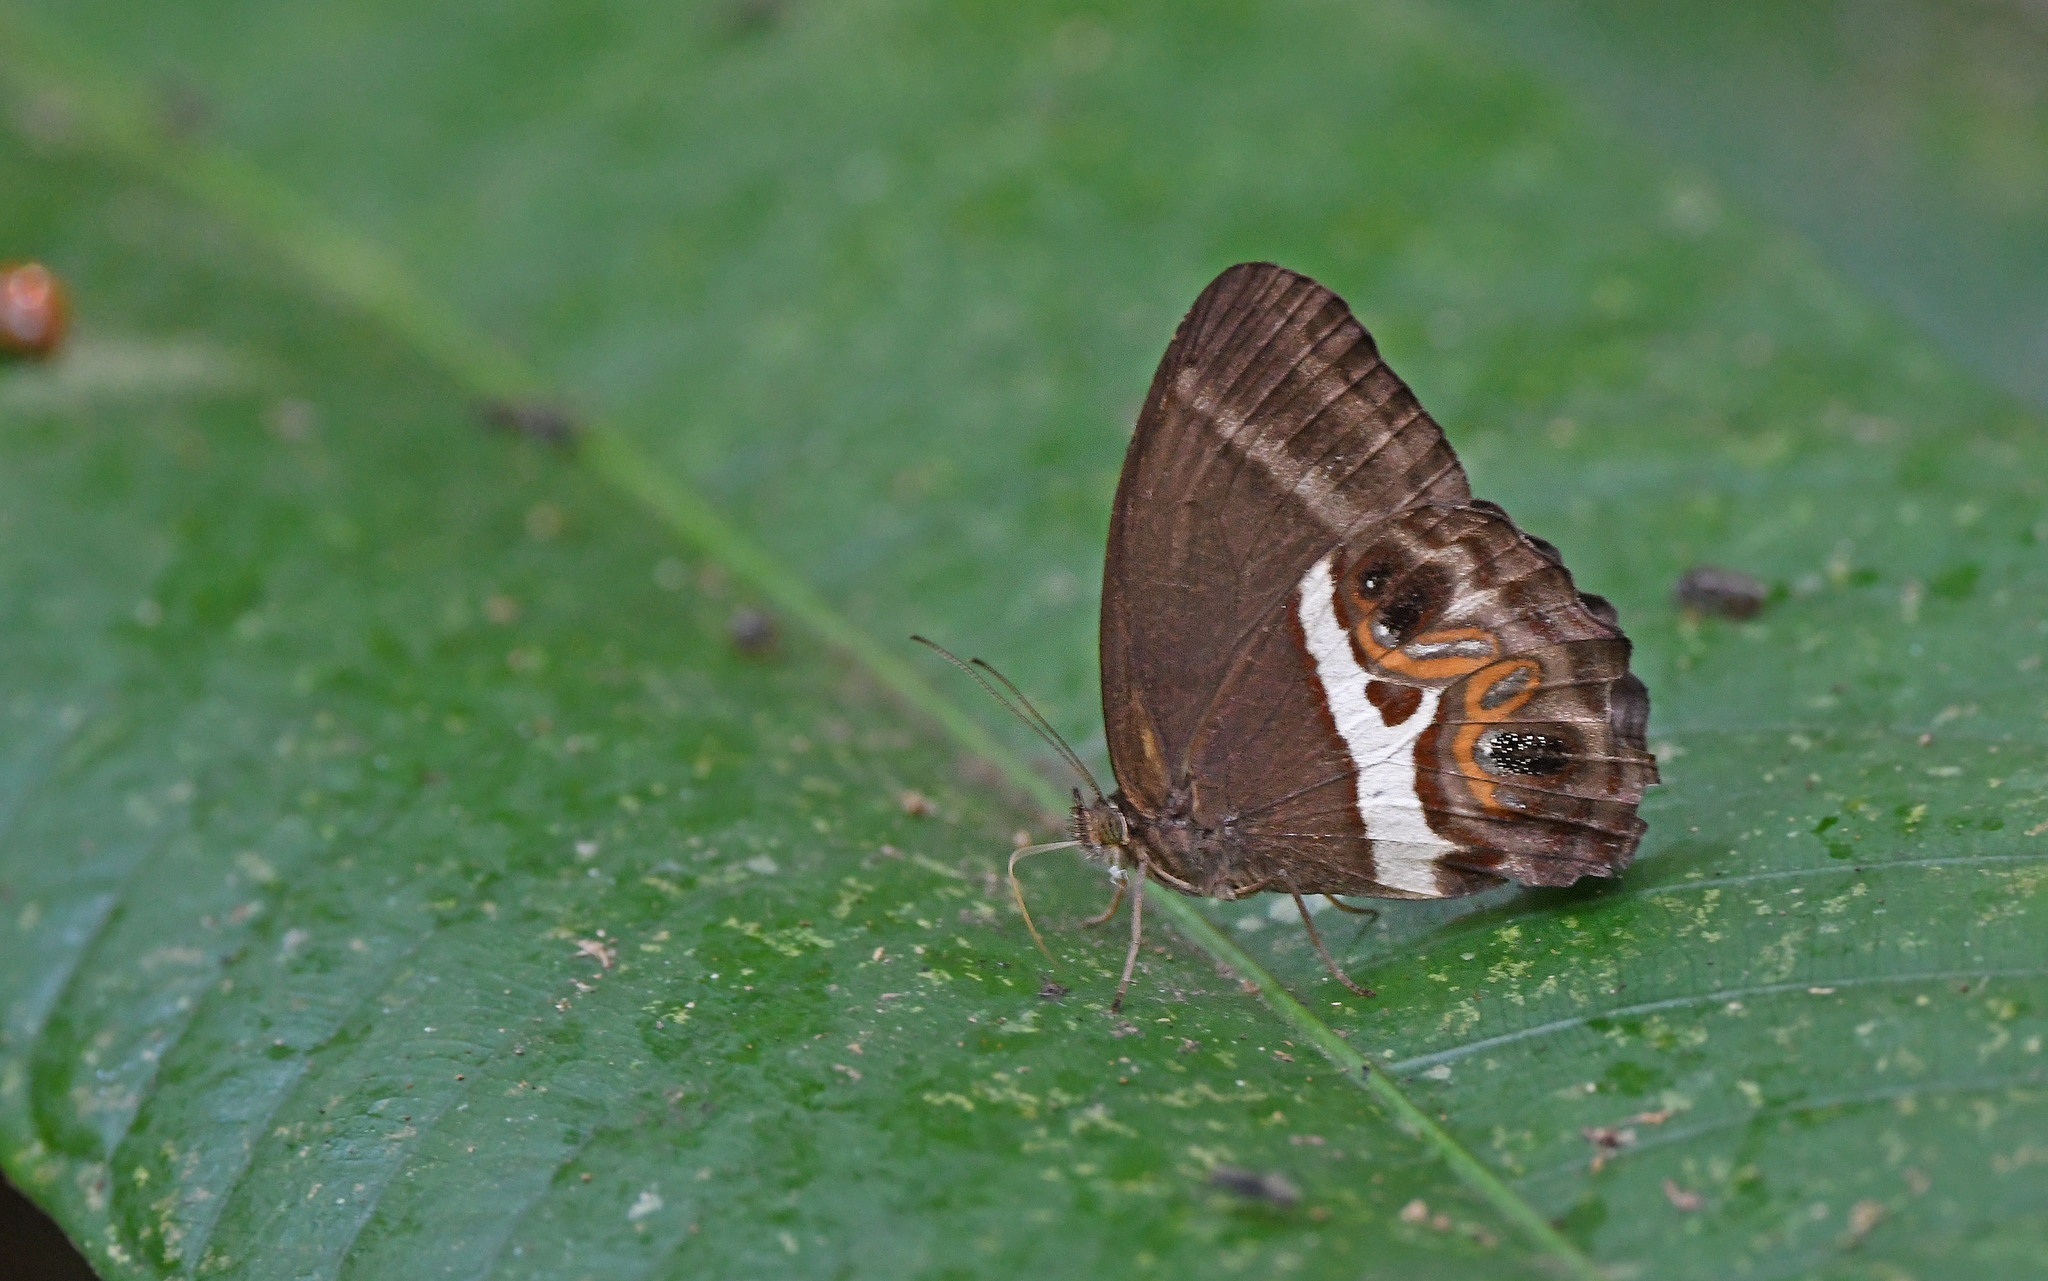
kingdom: Animalia
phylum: Arthropoda
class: Insecta
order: Lepidoptera
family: Nymphalidae
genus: Amphidecta
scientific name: Amphidecta
